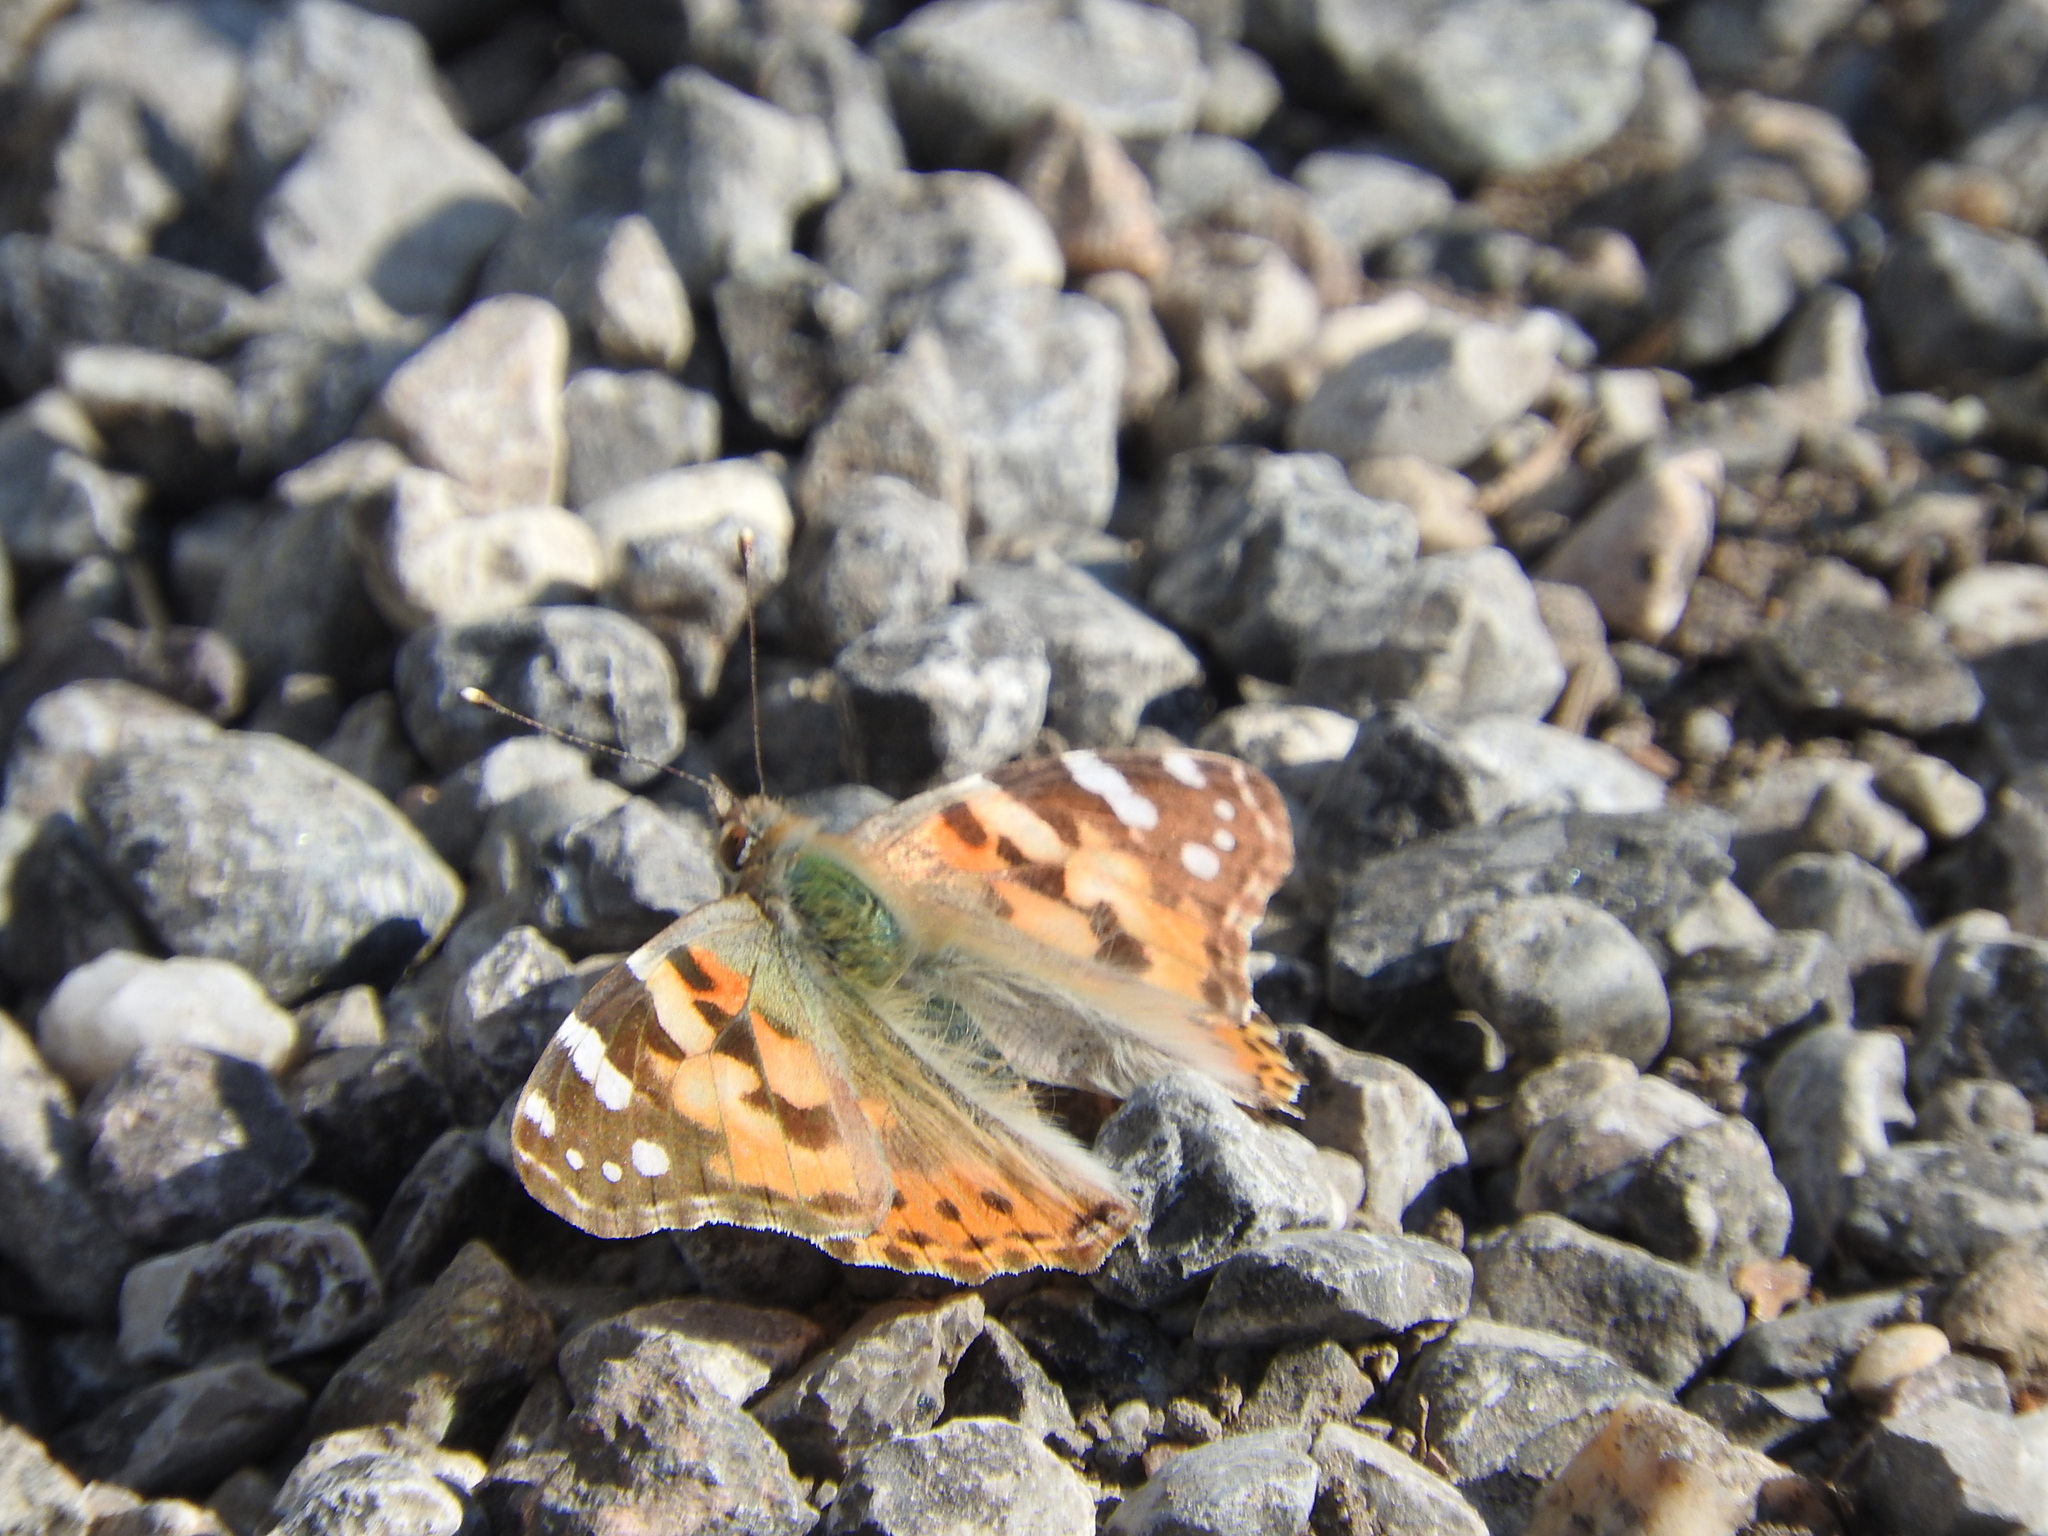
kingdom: Animalia
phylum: Arthropoda
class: Insecta
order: Lepidoptera
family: Nymphalidae
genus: Vanessa
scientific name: Vanessa cardui
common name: Painted lady
